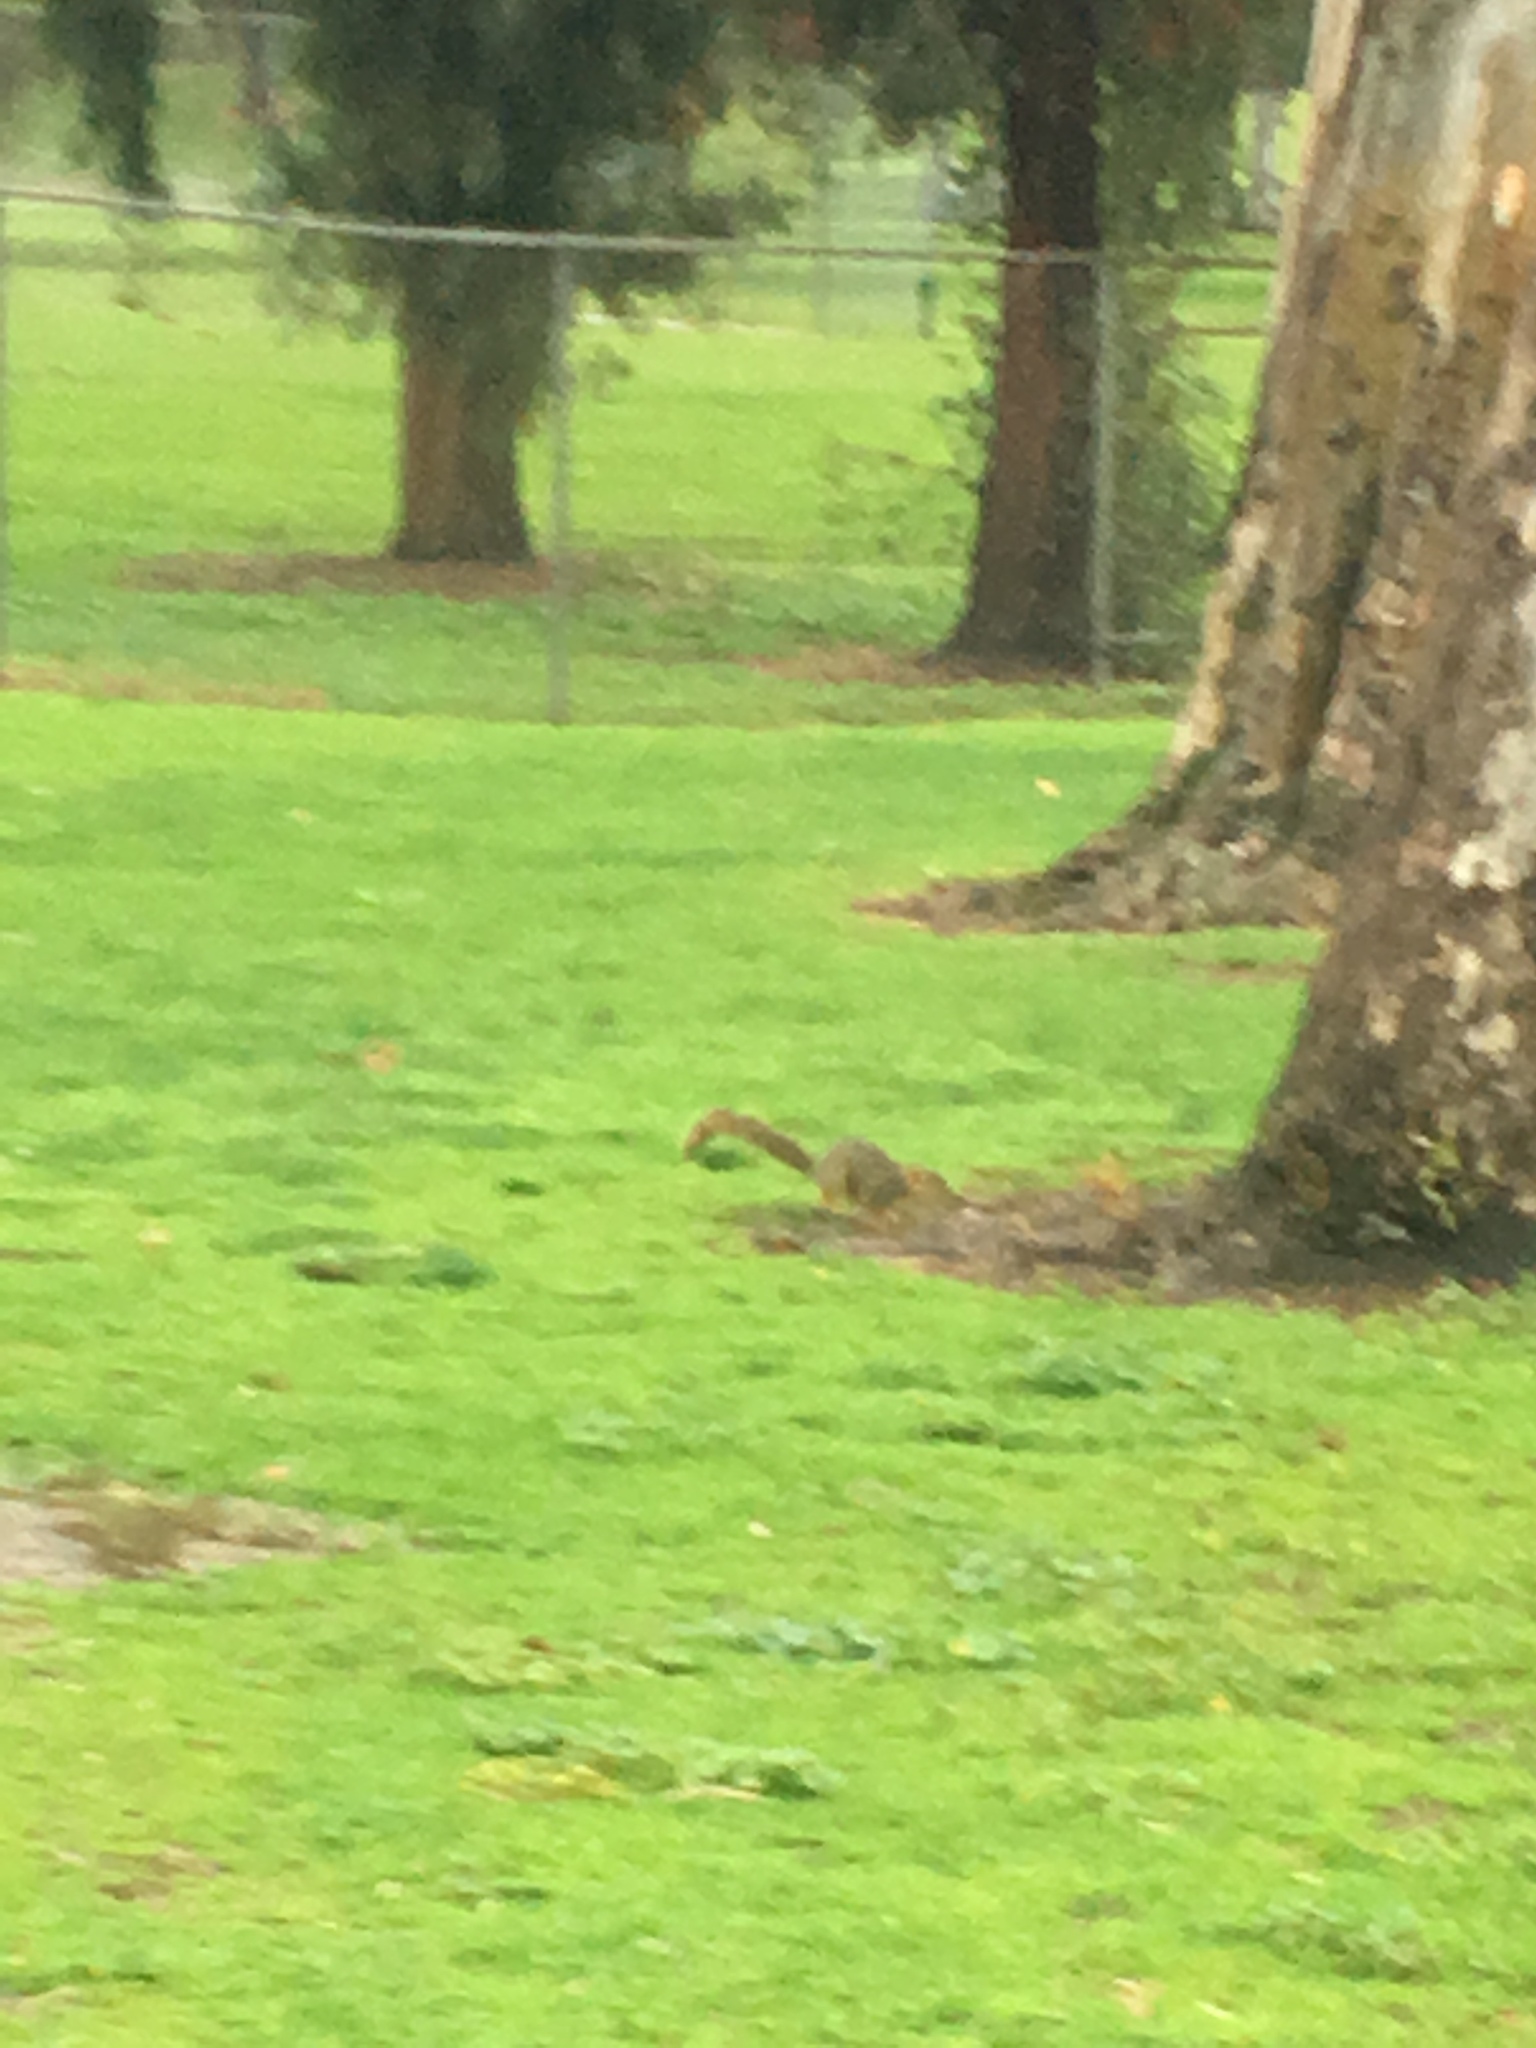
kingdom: Animalia
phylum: Chordata
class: Mammalia
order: Rodentia
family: Sciuridae
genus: Sciurus
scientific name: Sciurus niger
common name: Fox squirrel
